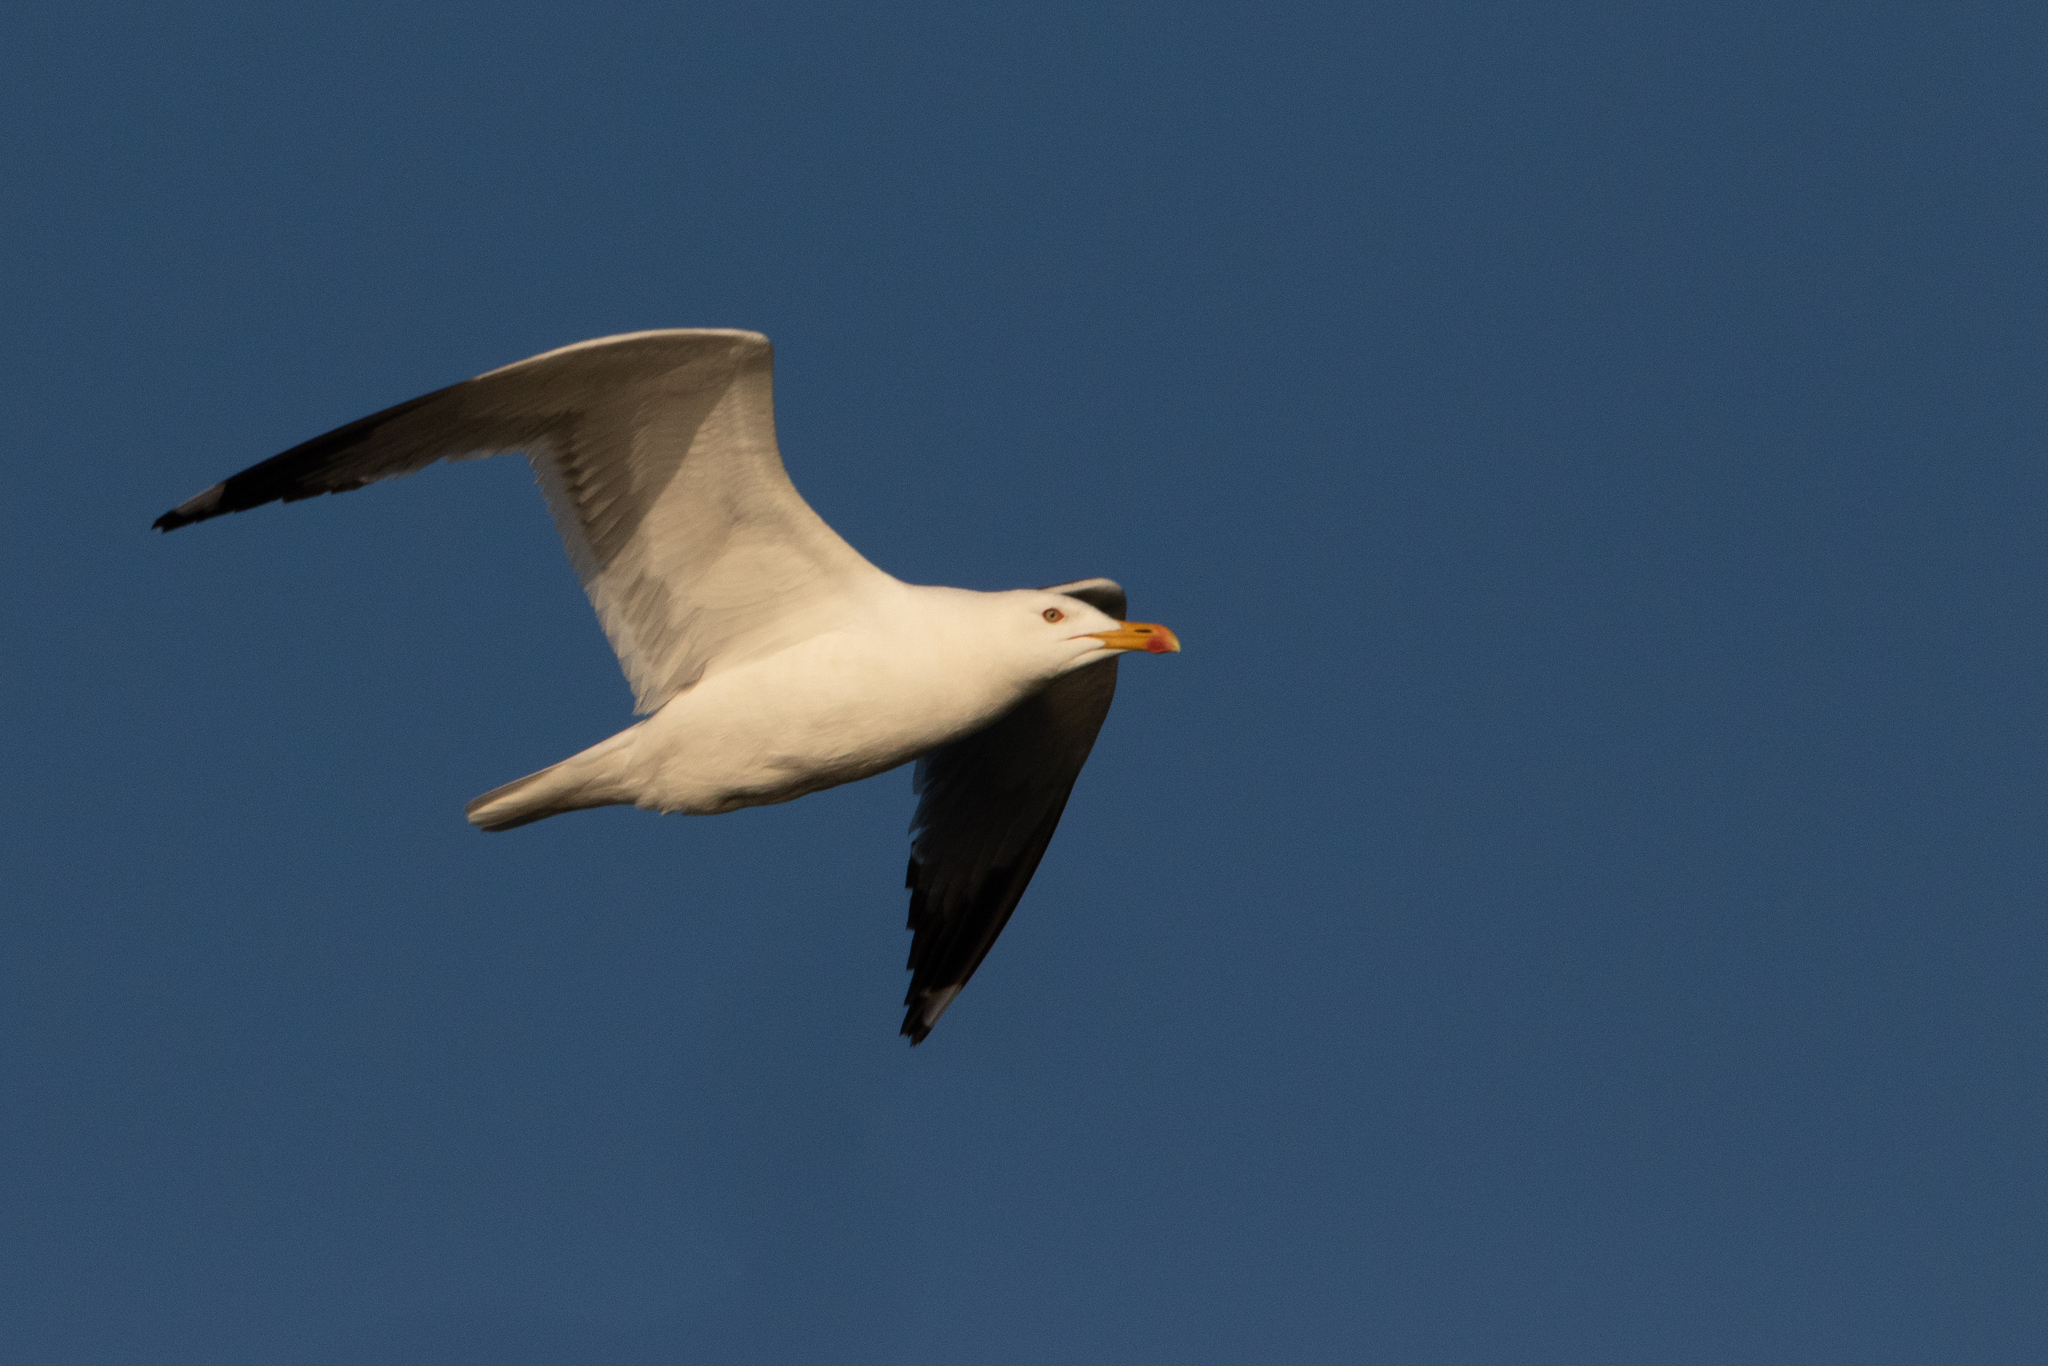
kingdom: Animalia
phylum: Chordata
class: Aves
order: Charadriiformes
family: Laridae
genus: Larus
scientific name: Larus fuscus
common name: Lesser black-backed gull
